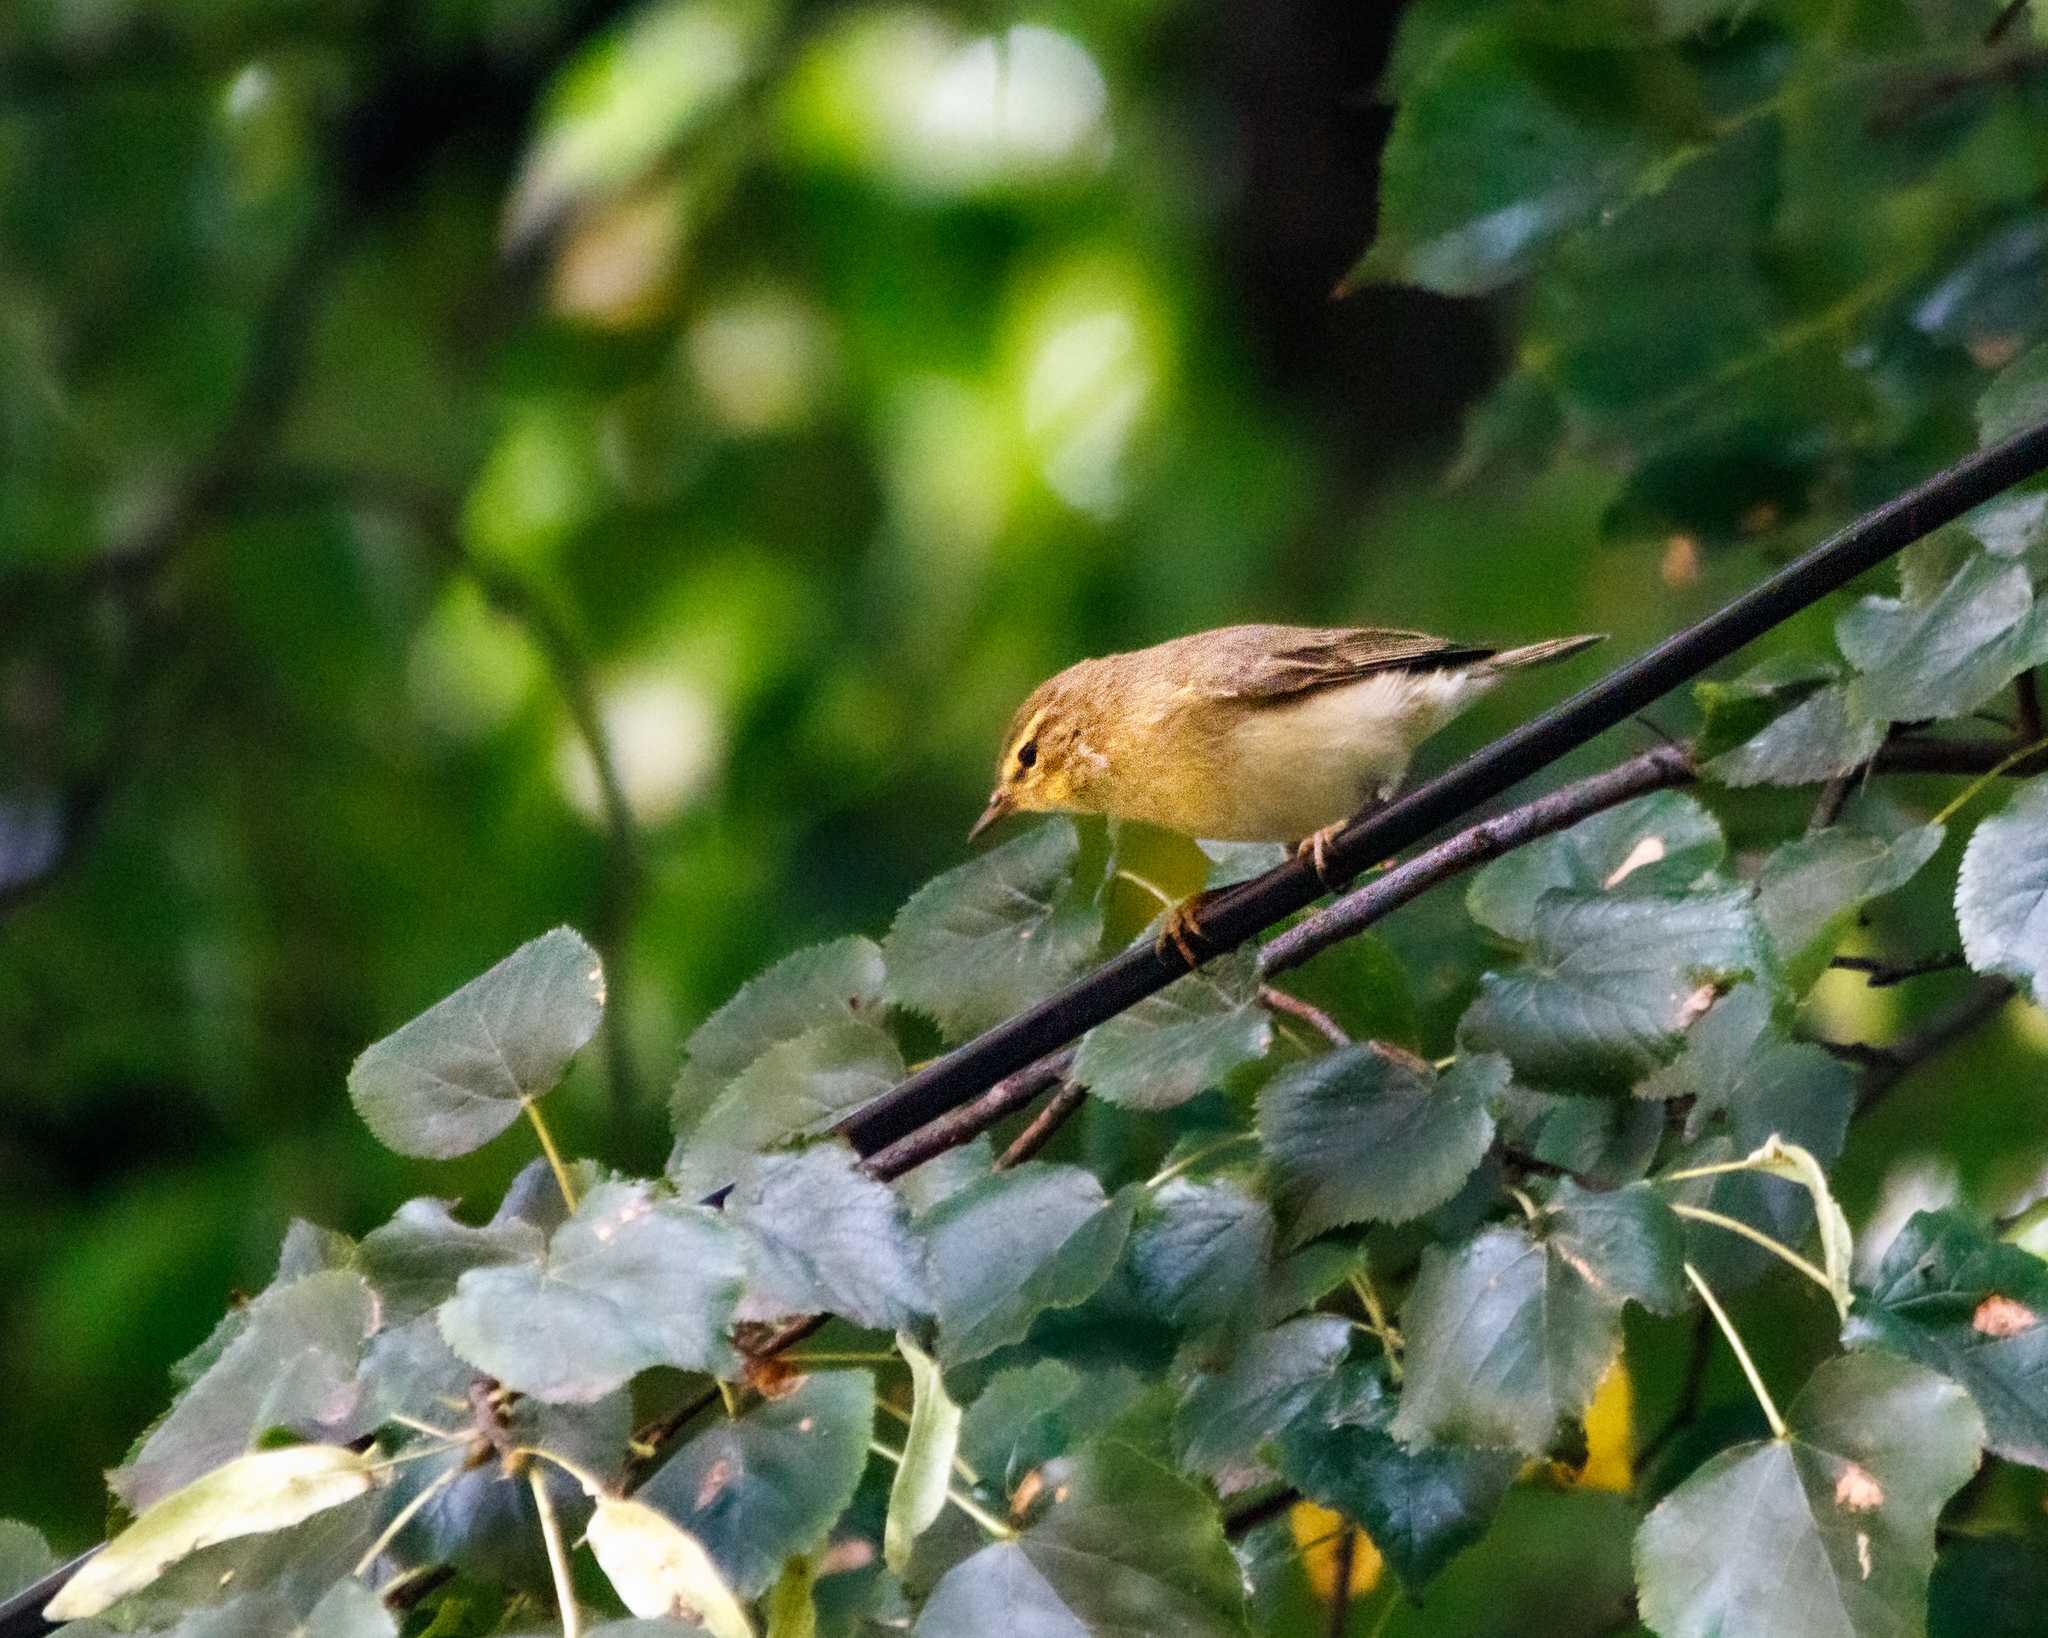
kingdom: Animalia
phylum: Chordata
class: Aves
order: Passeriformes
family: Phylloscopidae
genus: Phylloscopus
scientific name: Phylloscopus trochilus
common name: Willow warbler
